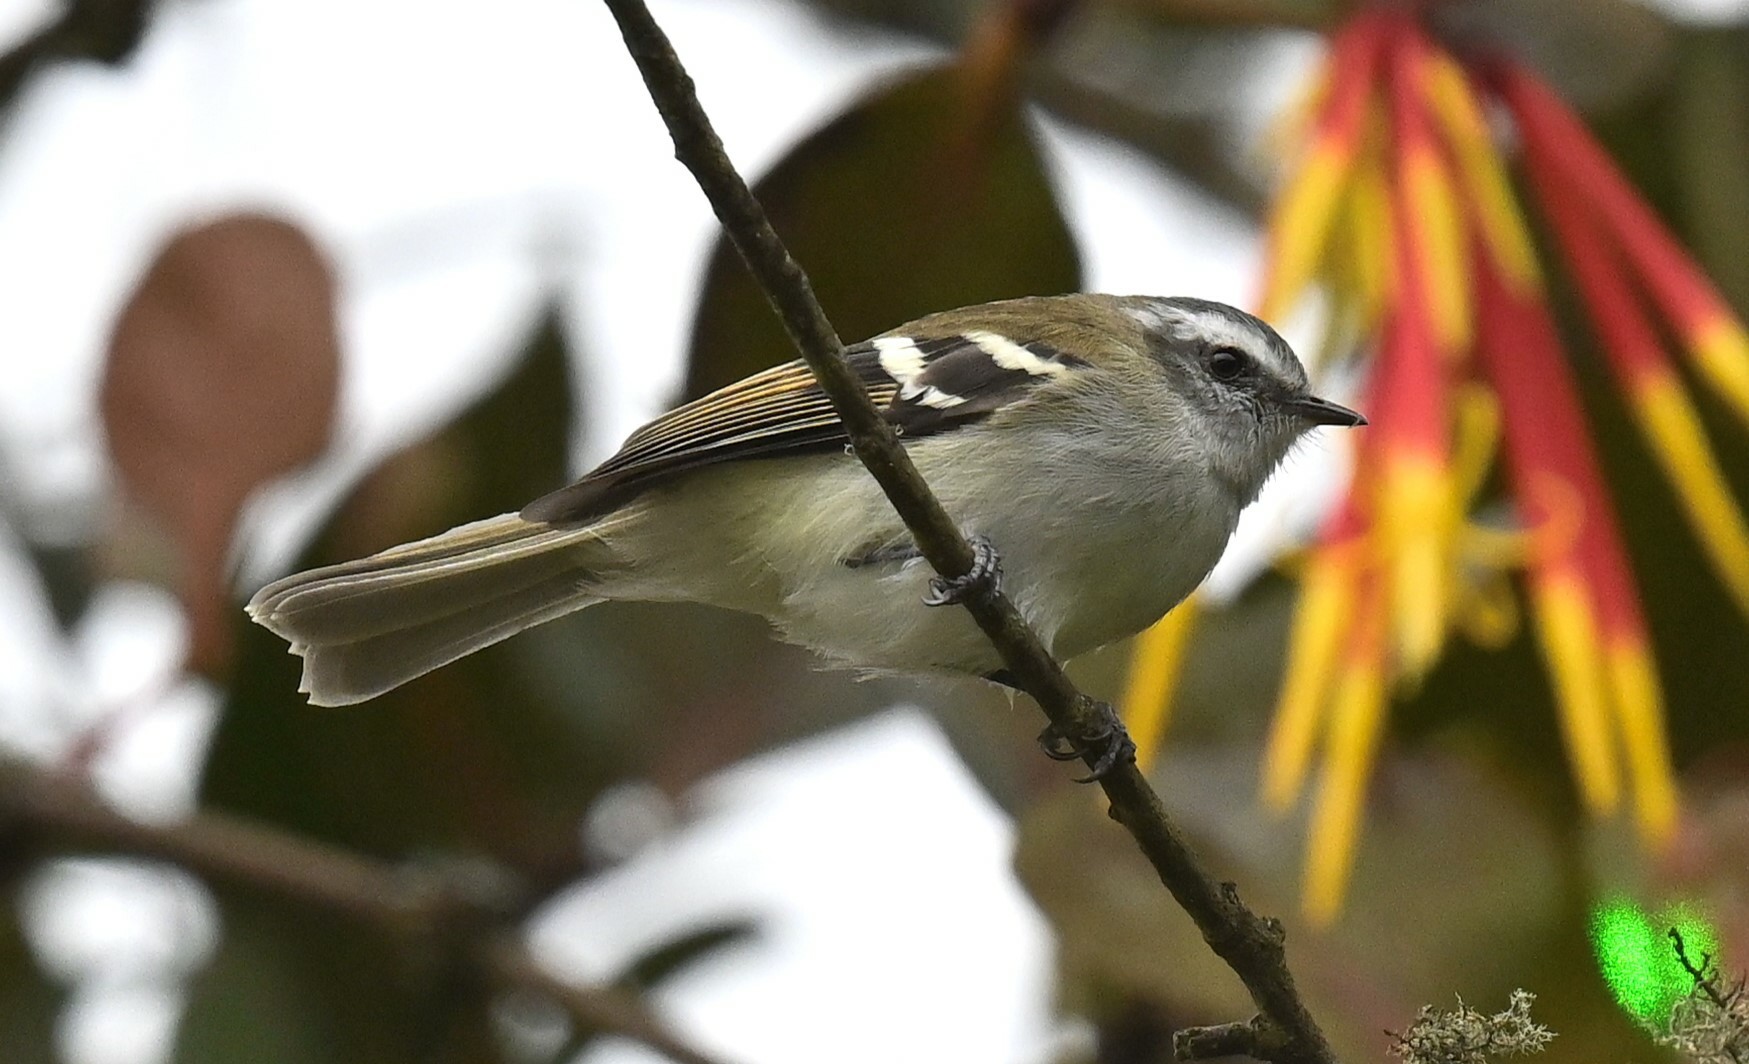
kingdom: Animalia
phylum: Chordata
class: Aves
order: Passeriformes
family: Tyrannidae
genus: Mecocerculus
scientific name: Mecocerculus stictopterus
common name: White-banded tyrannulet
